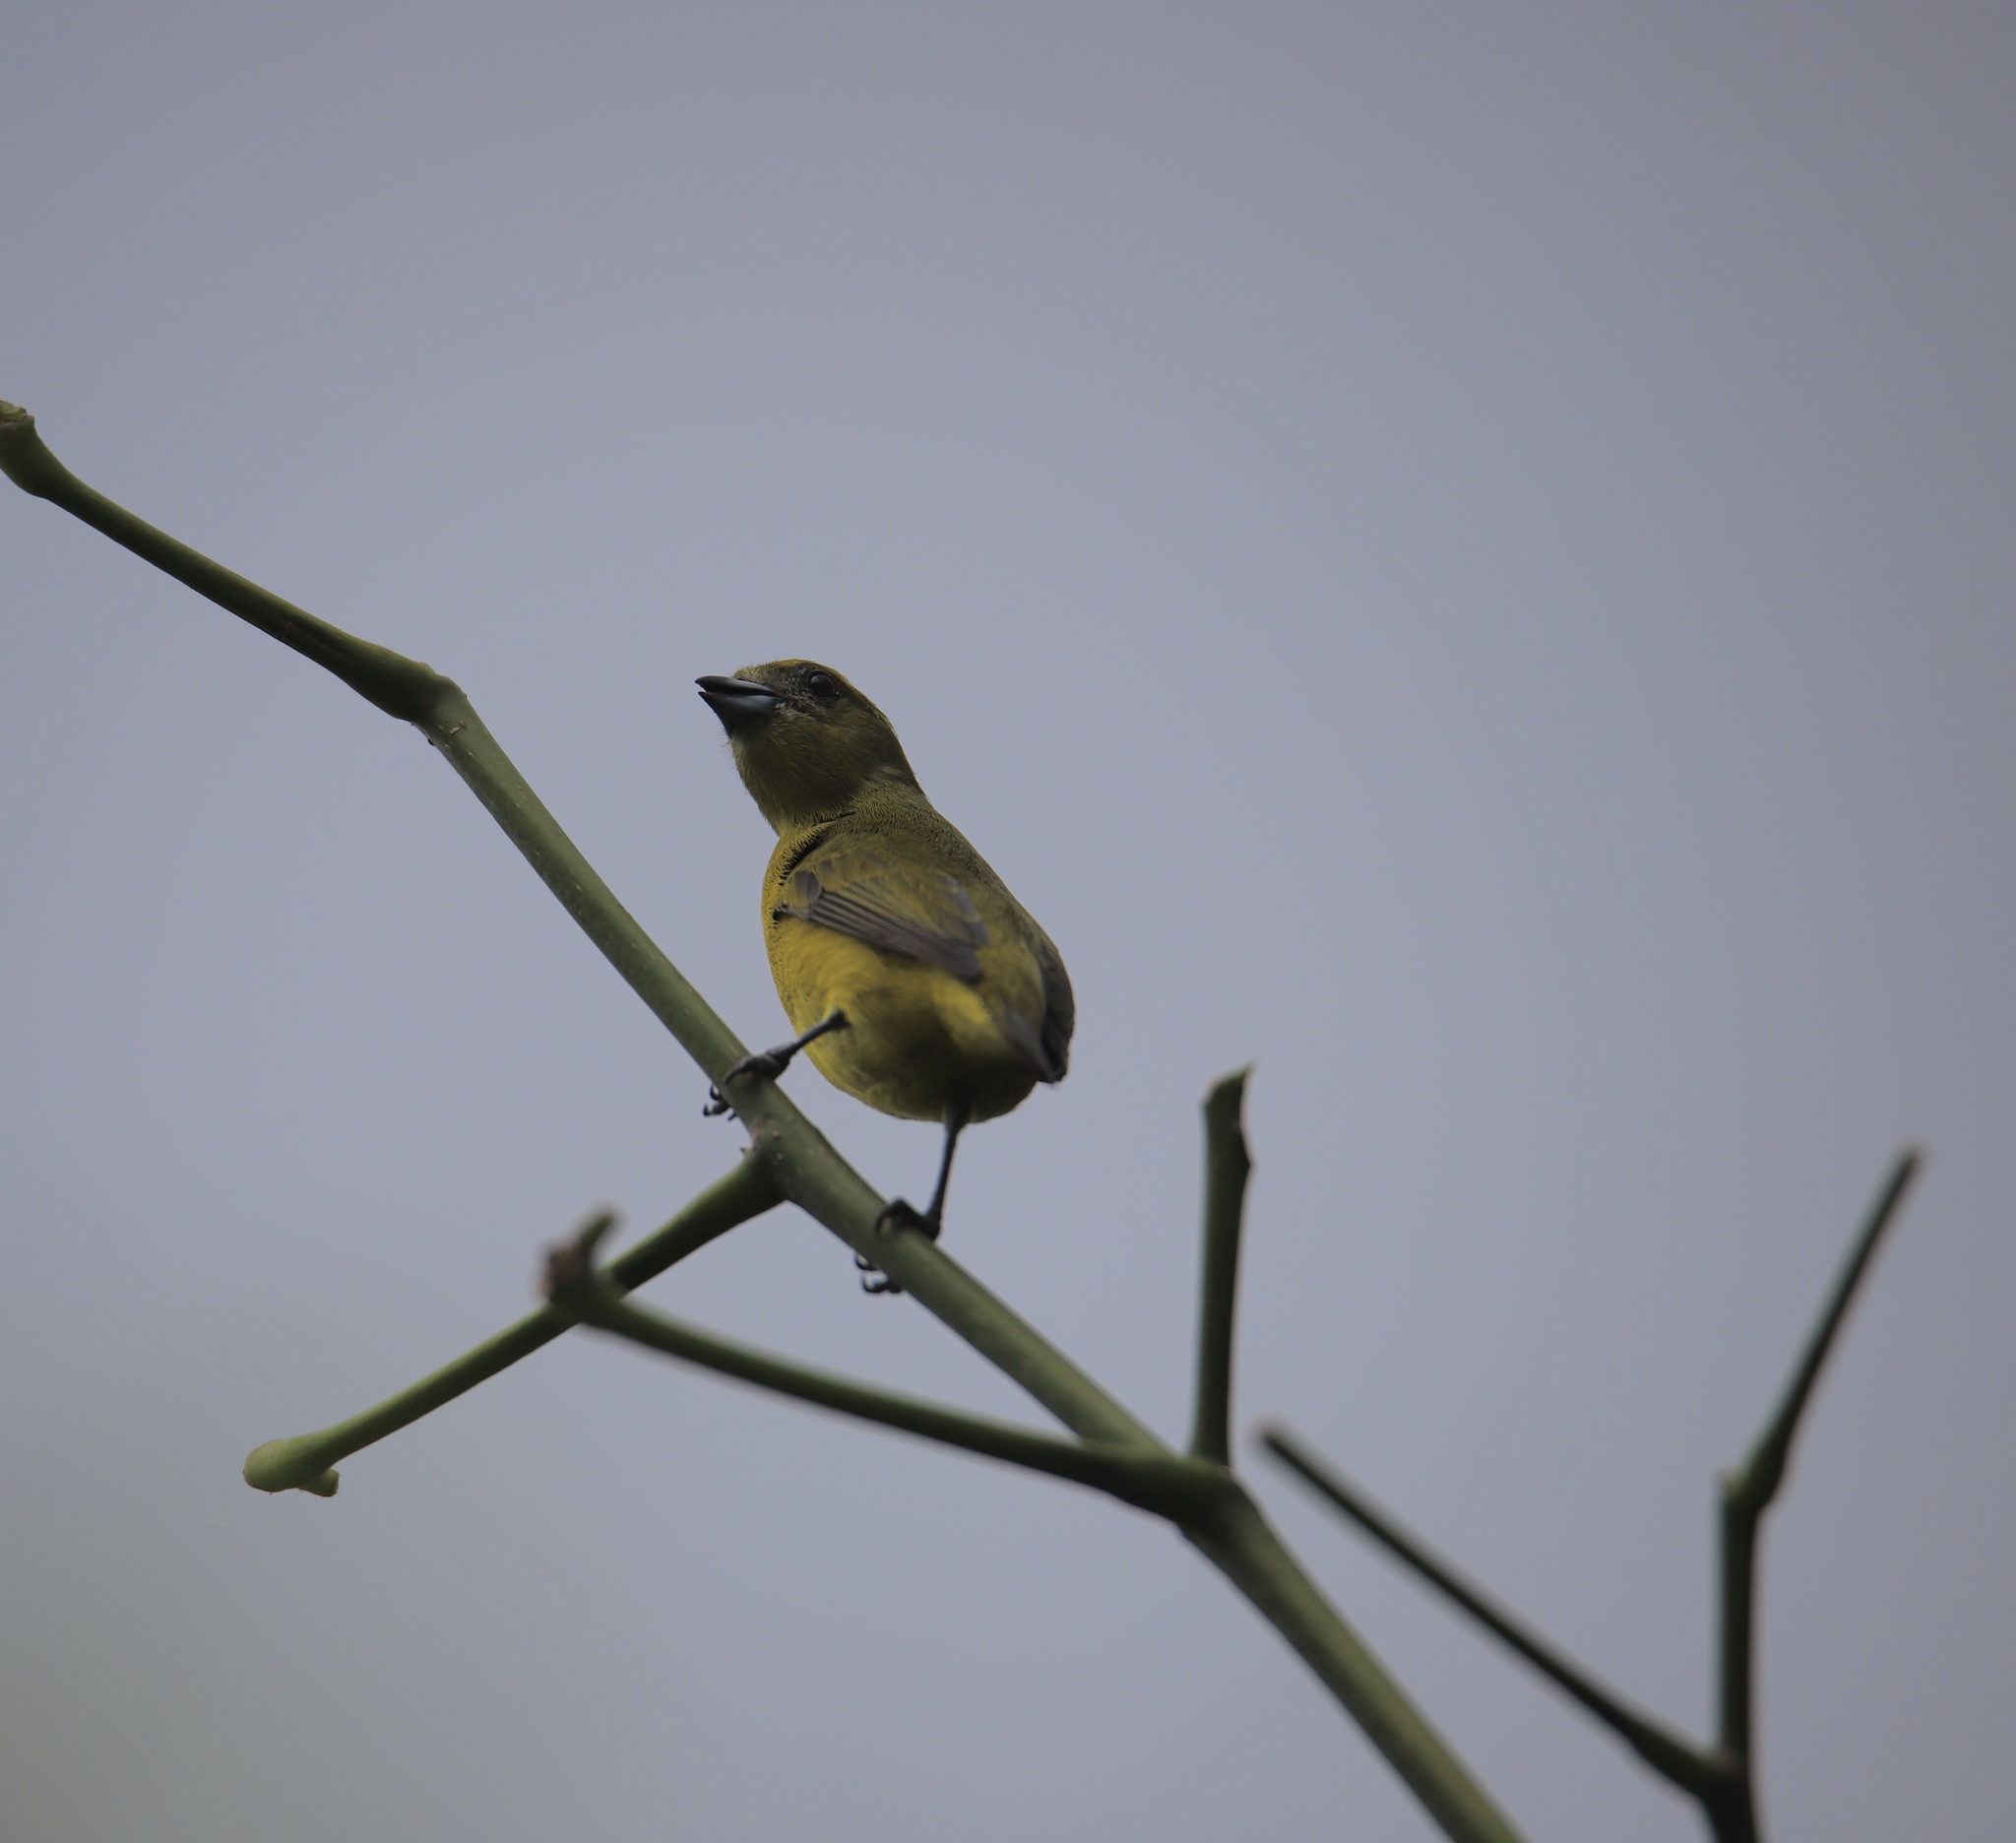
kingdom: Animalia
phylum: Chordata
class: Aves
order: Passeriformes
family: Fringillidae
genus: Euphonia
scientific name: Euphonia laniirostris
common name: Thick-billed euphonia
